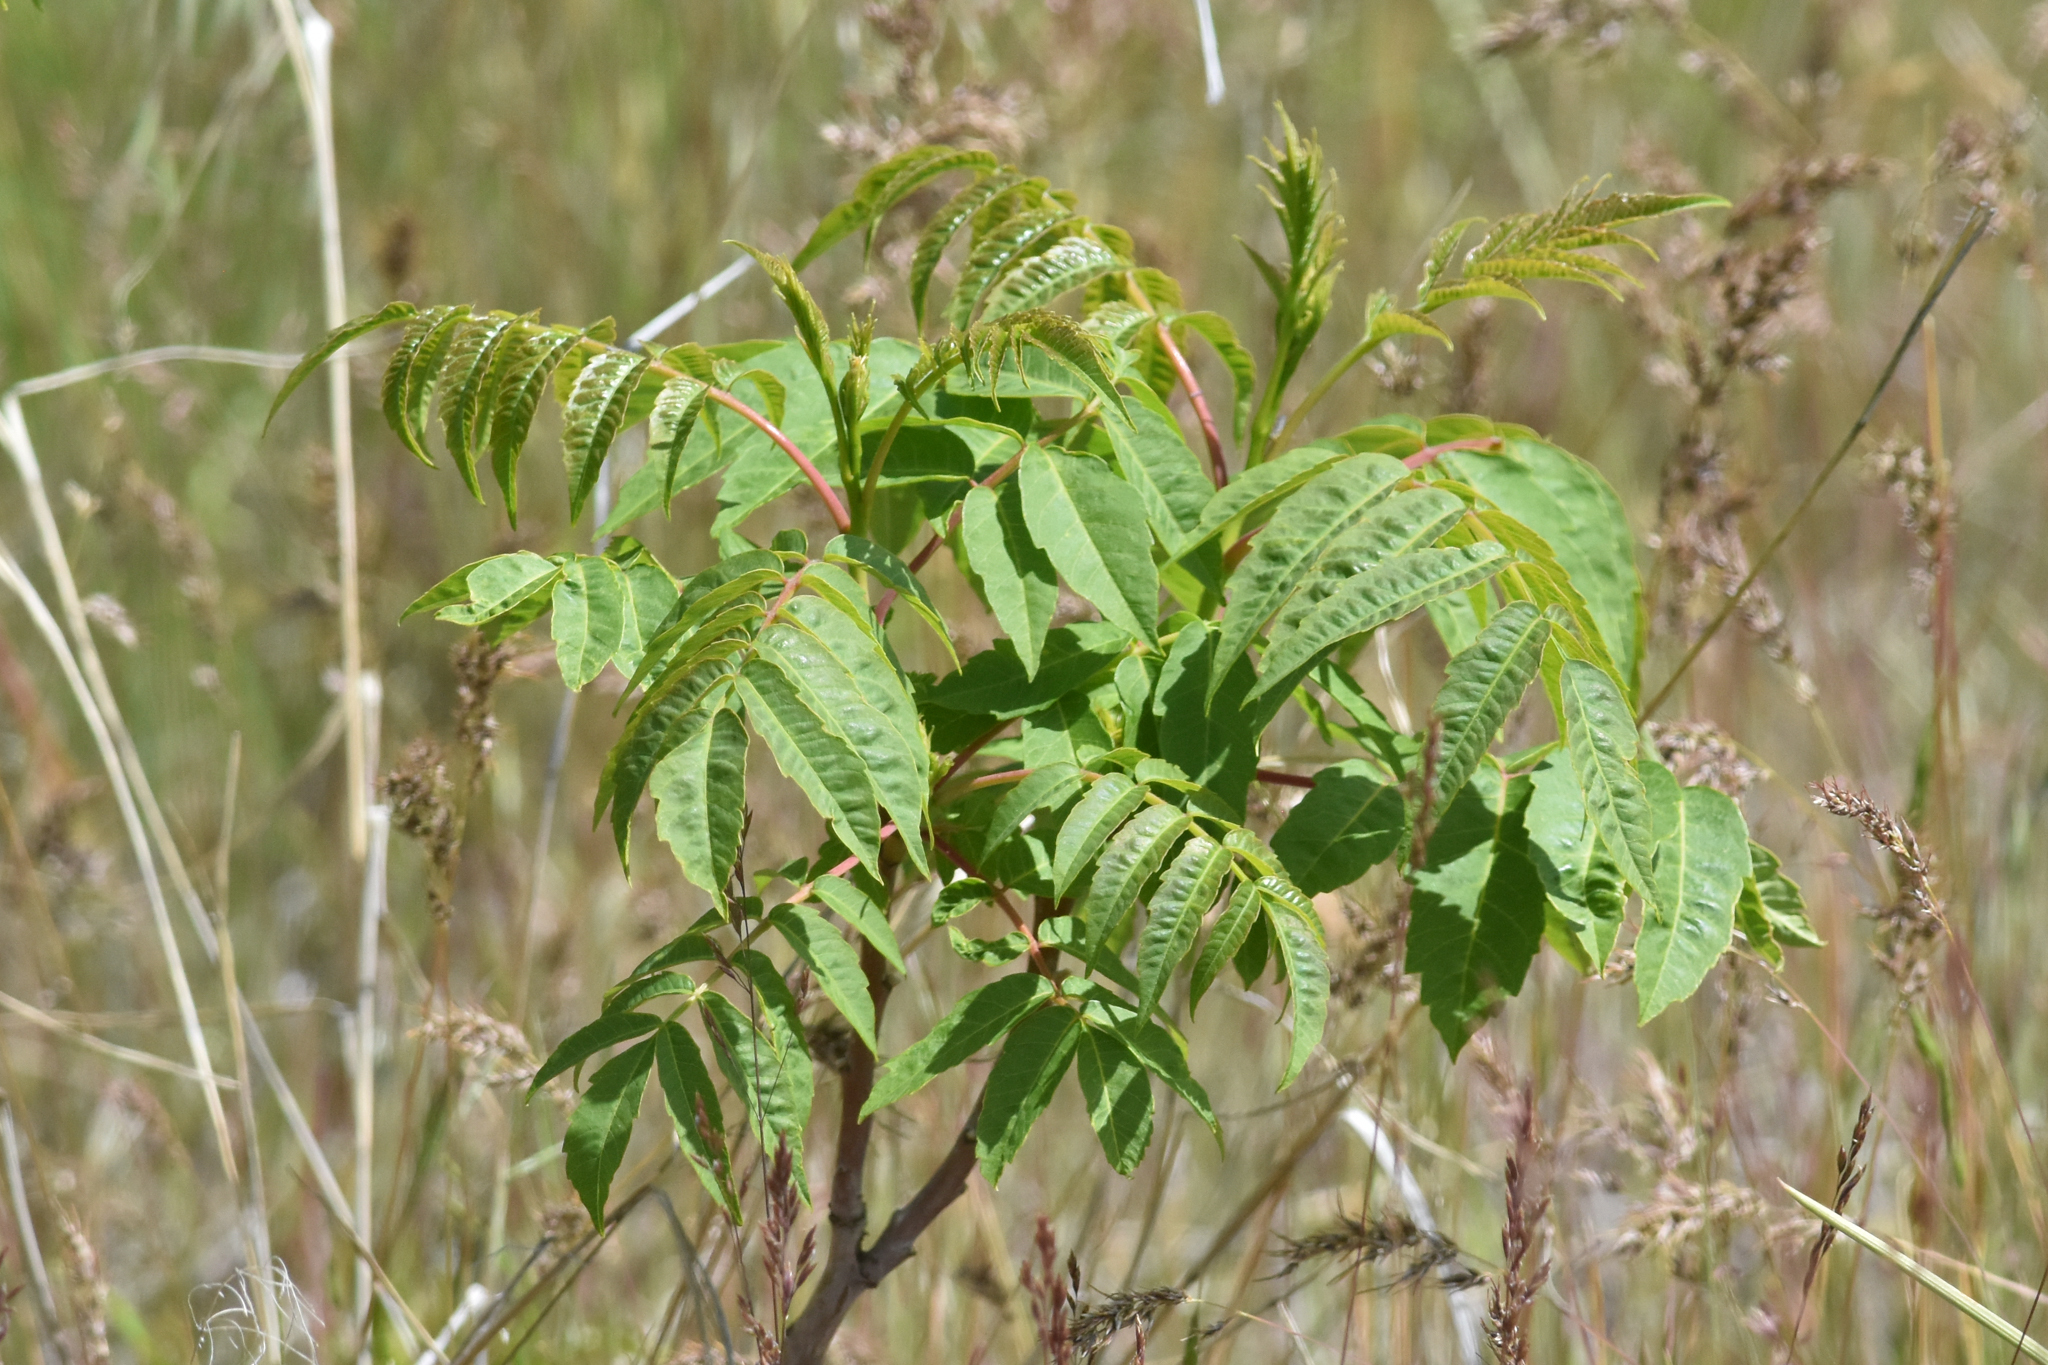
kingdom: Plantae
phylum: Tracheophyta
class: Magnoliopsida
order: Sapindales
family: Anacardiaceae
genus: Rhus
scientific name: Rhus glabra
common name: Scarlet sumac
